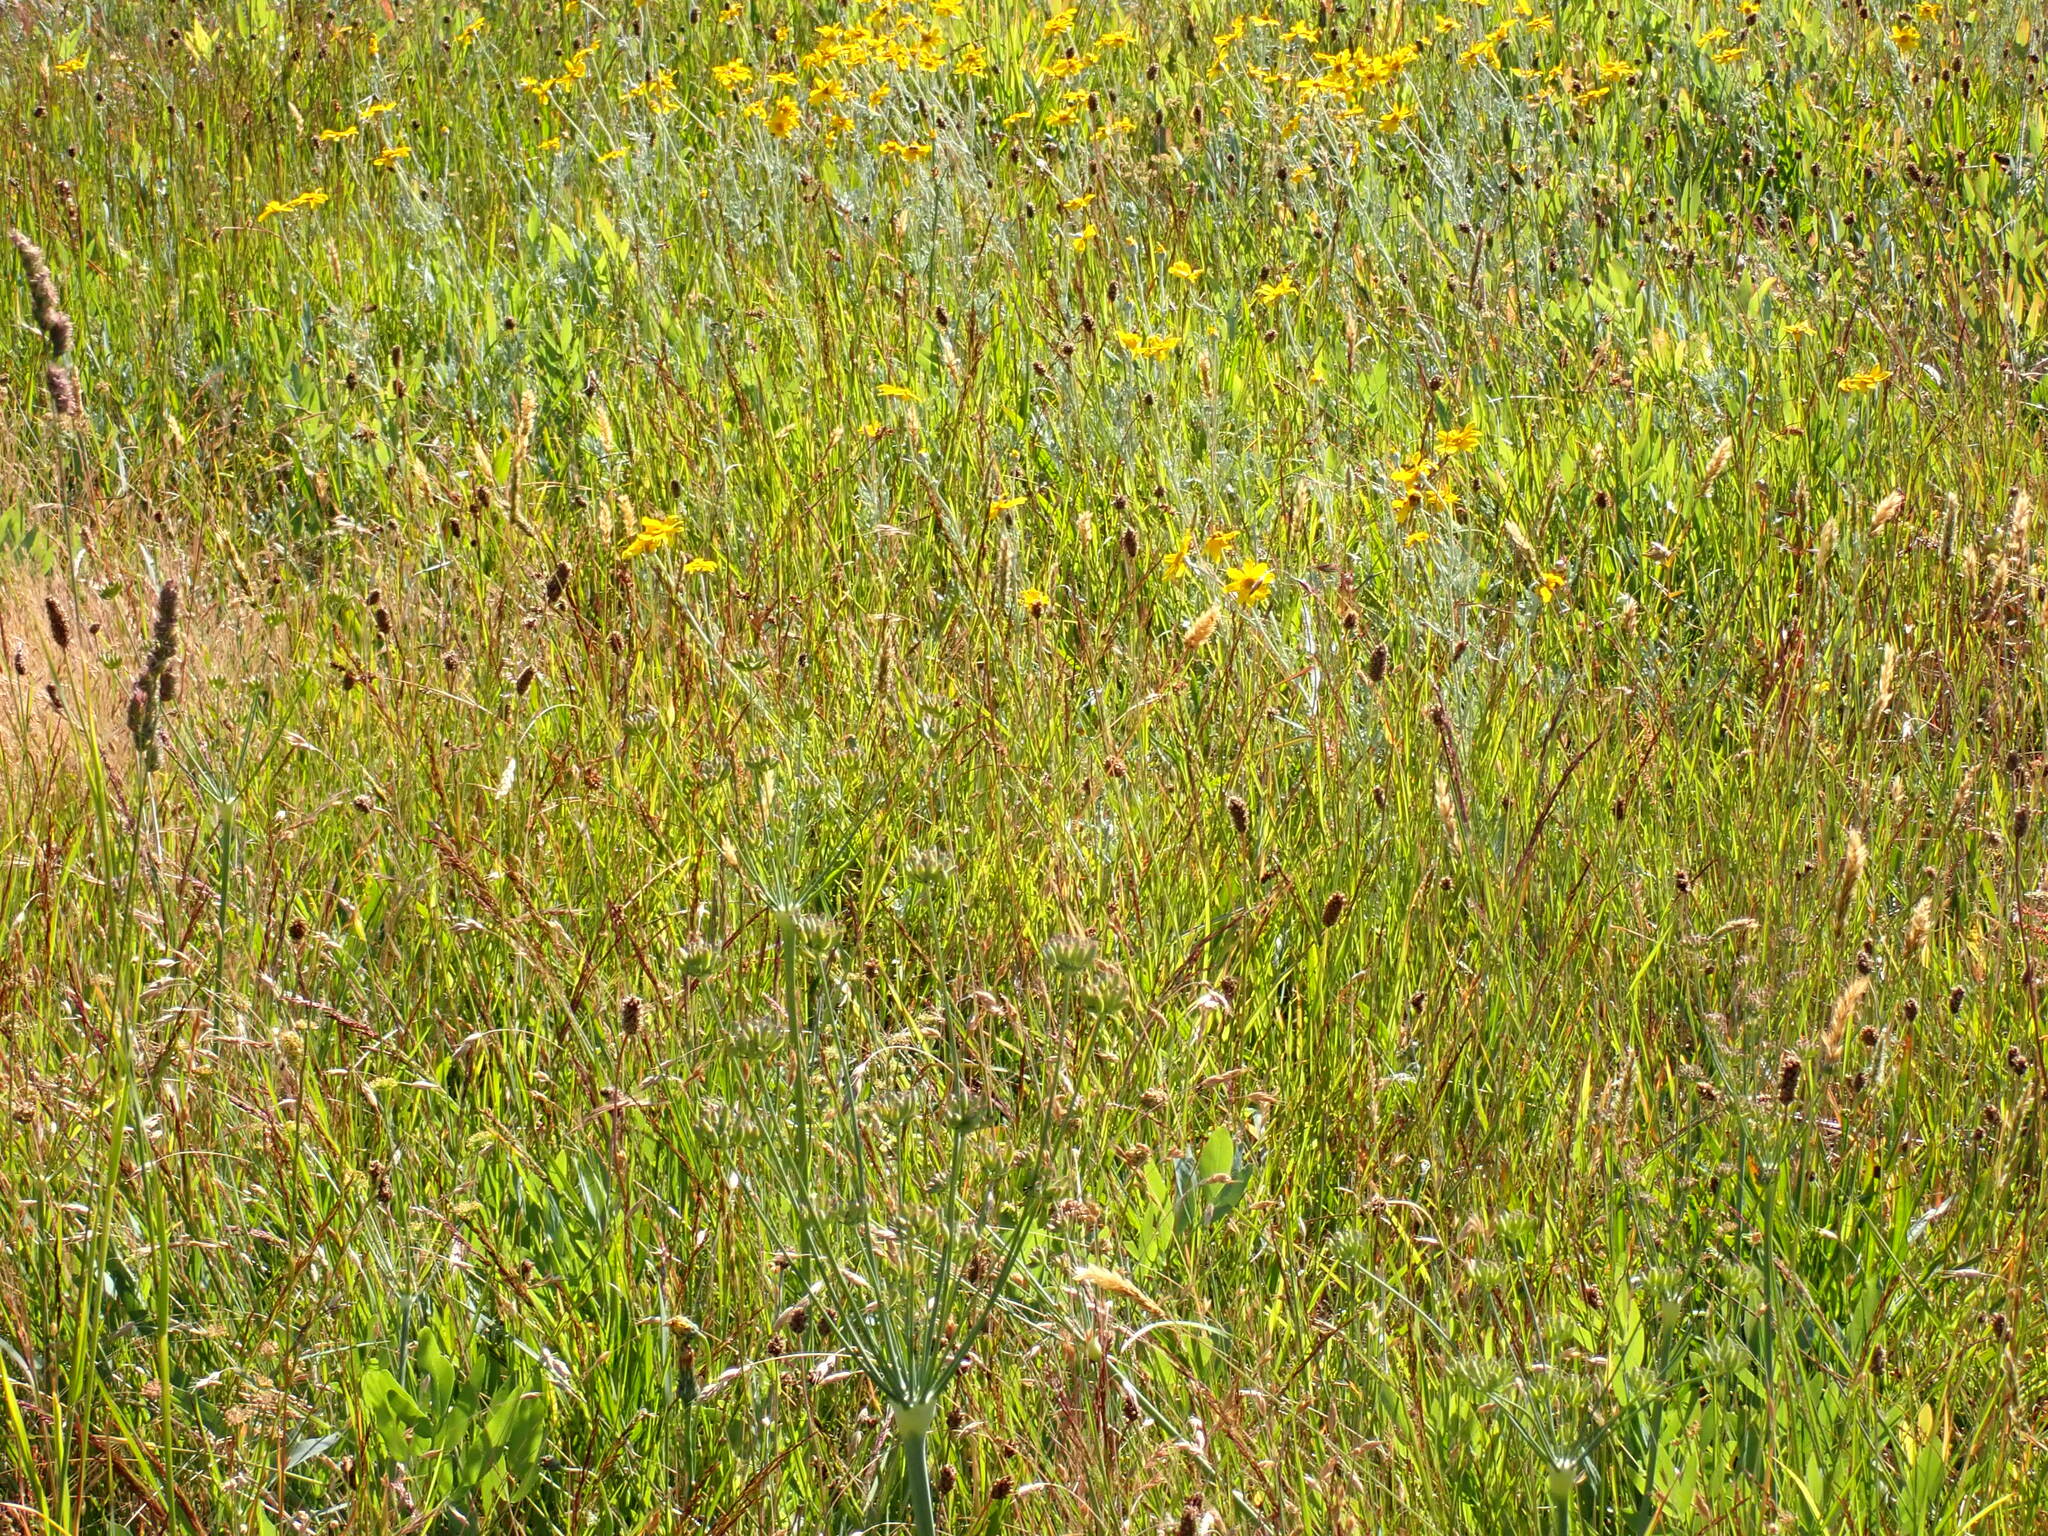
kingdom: Plantae
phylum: Tracheophyta
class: Magnoliopsida
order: Asterales
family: Asteraceae
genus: Eriophyllum
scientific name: Eriophyllum lanatum
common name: Common woolly-sunflower
